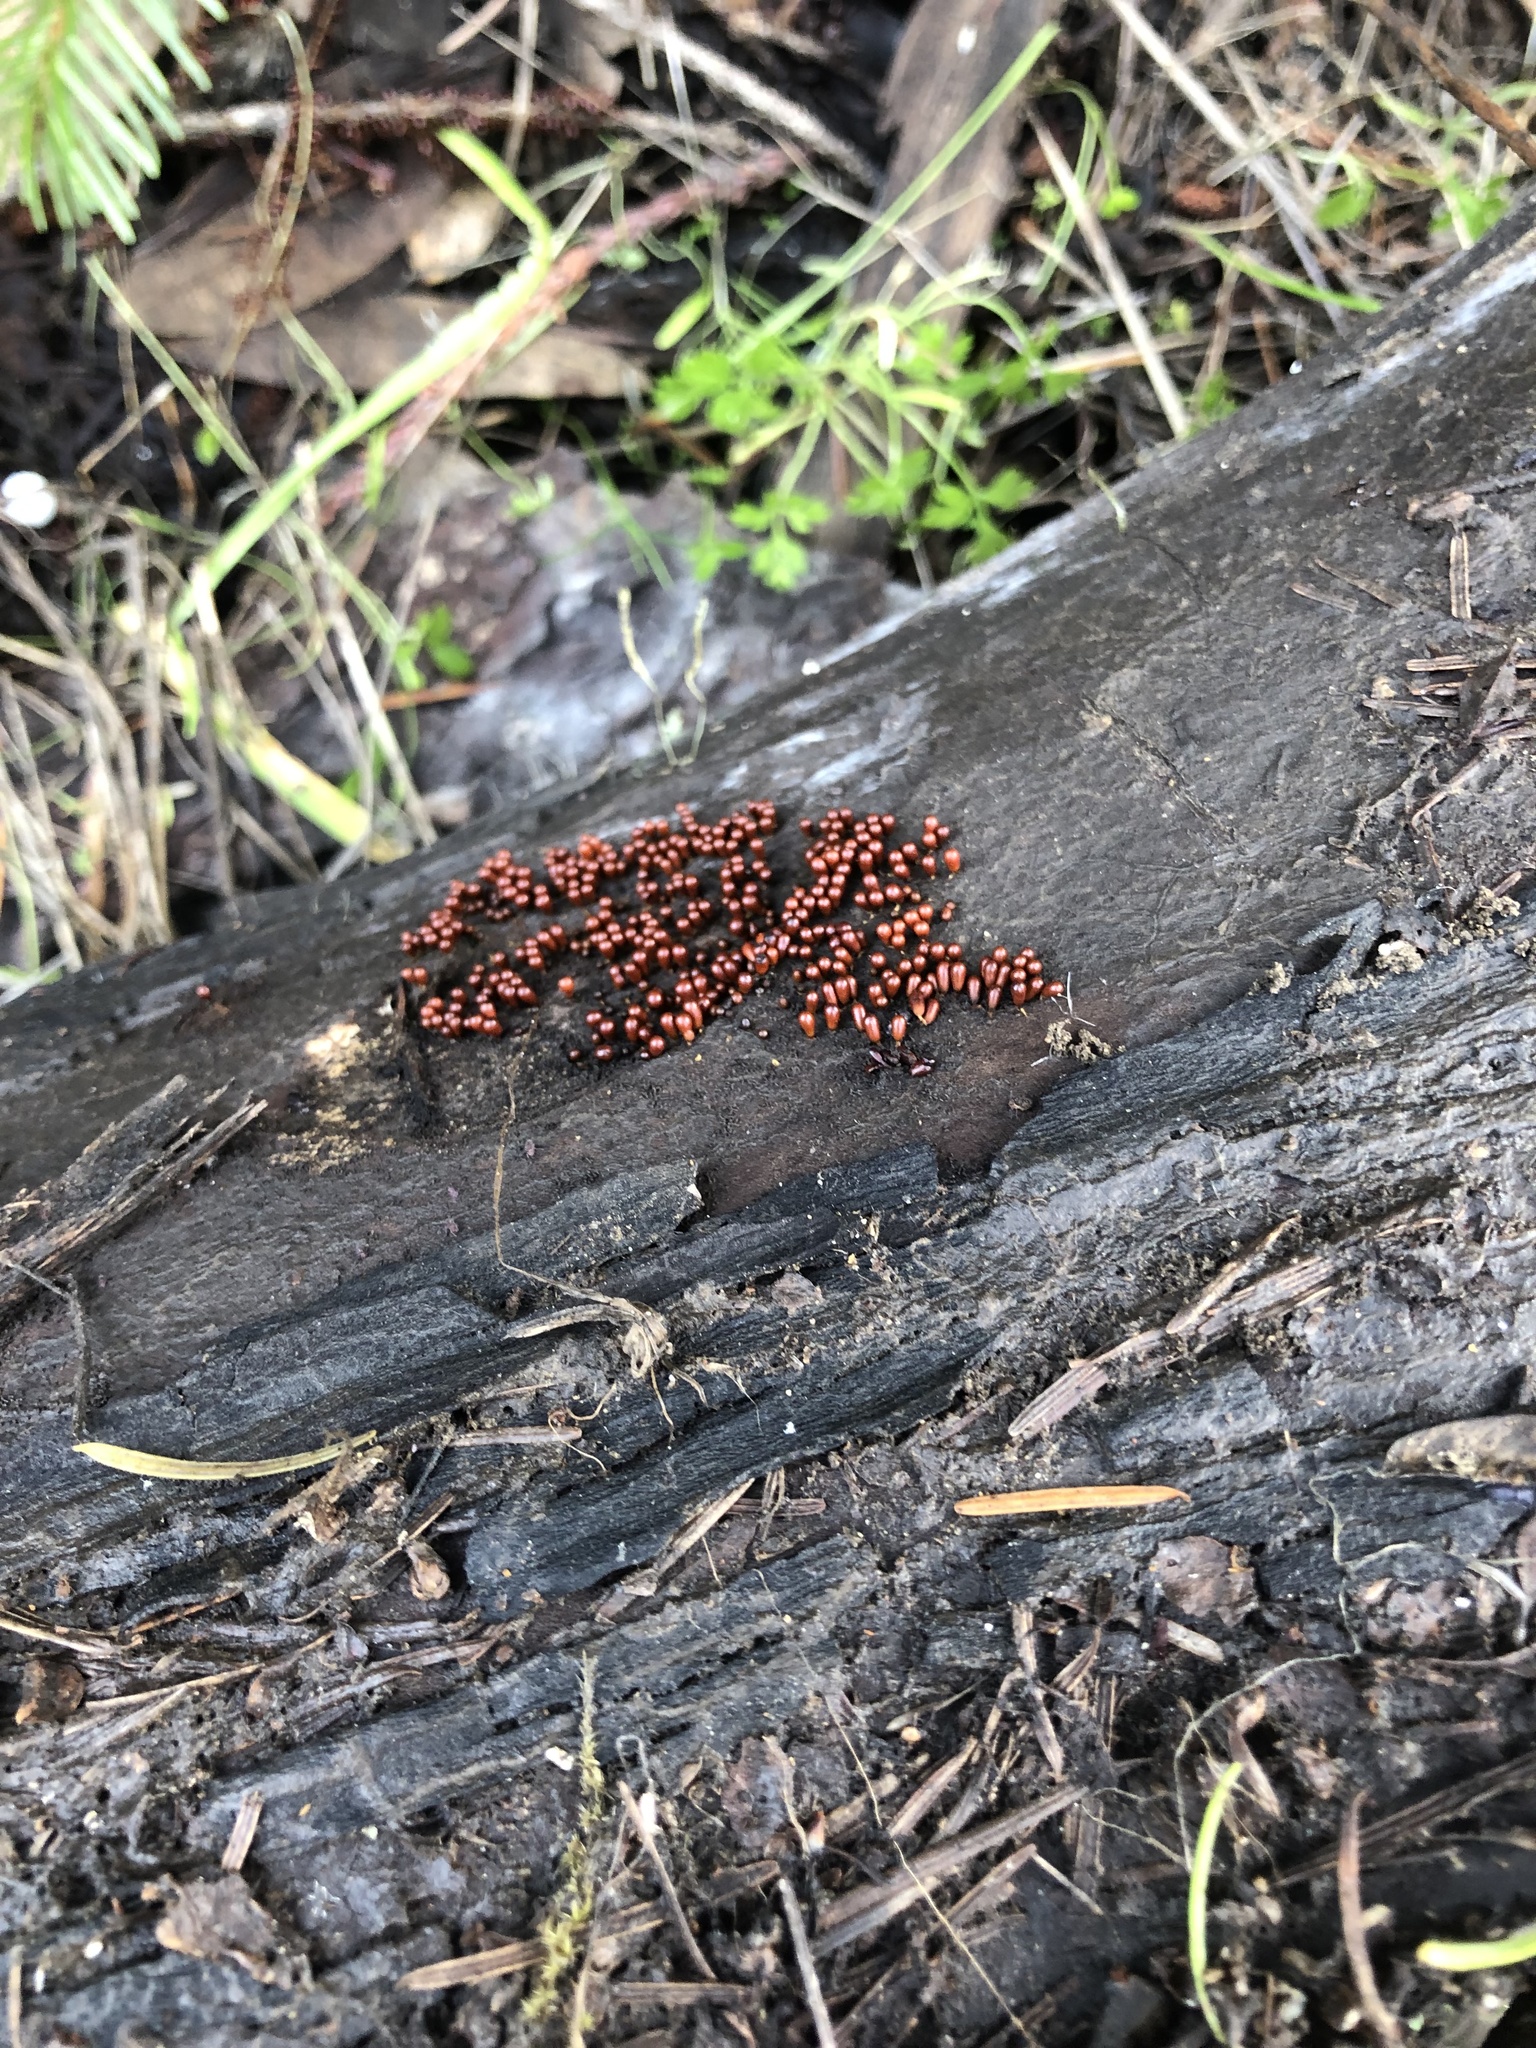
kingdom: Protozoa
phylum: Mycetozoa
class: Myxomycetes
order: Physarales
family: Physaraceae
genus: Leocarpus
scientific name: Leocarpus fragilis
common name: Insect-egg slime
